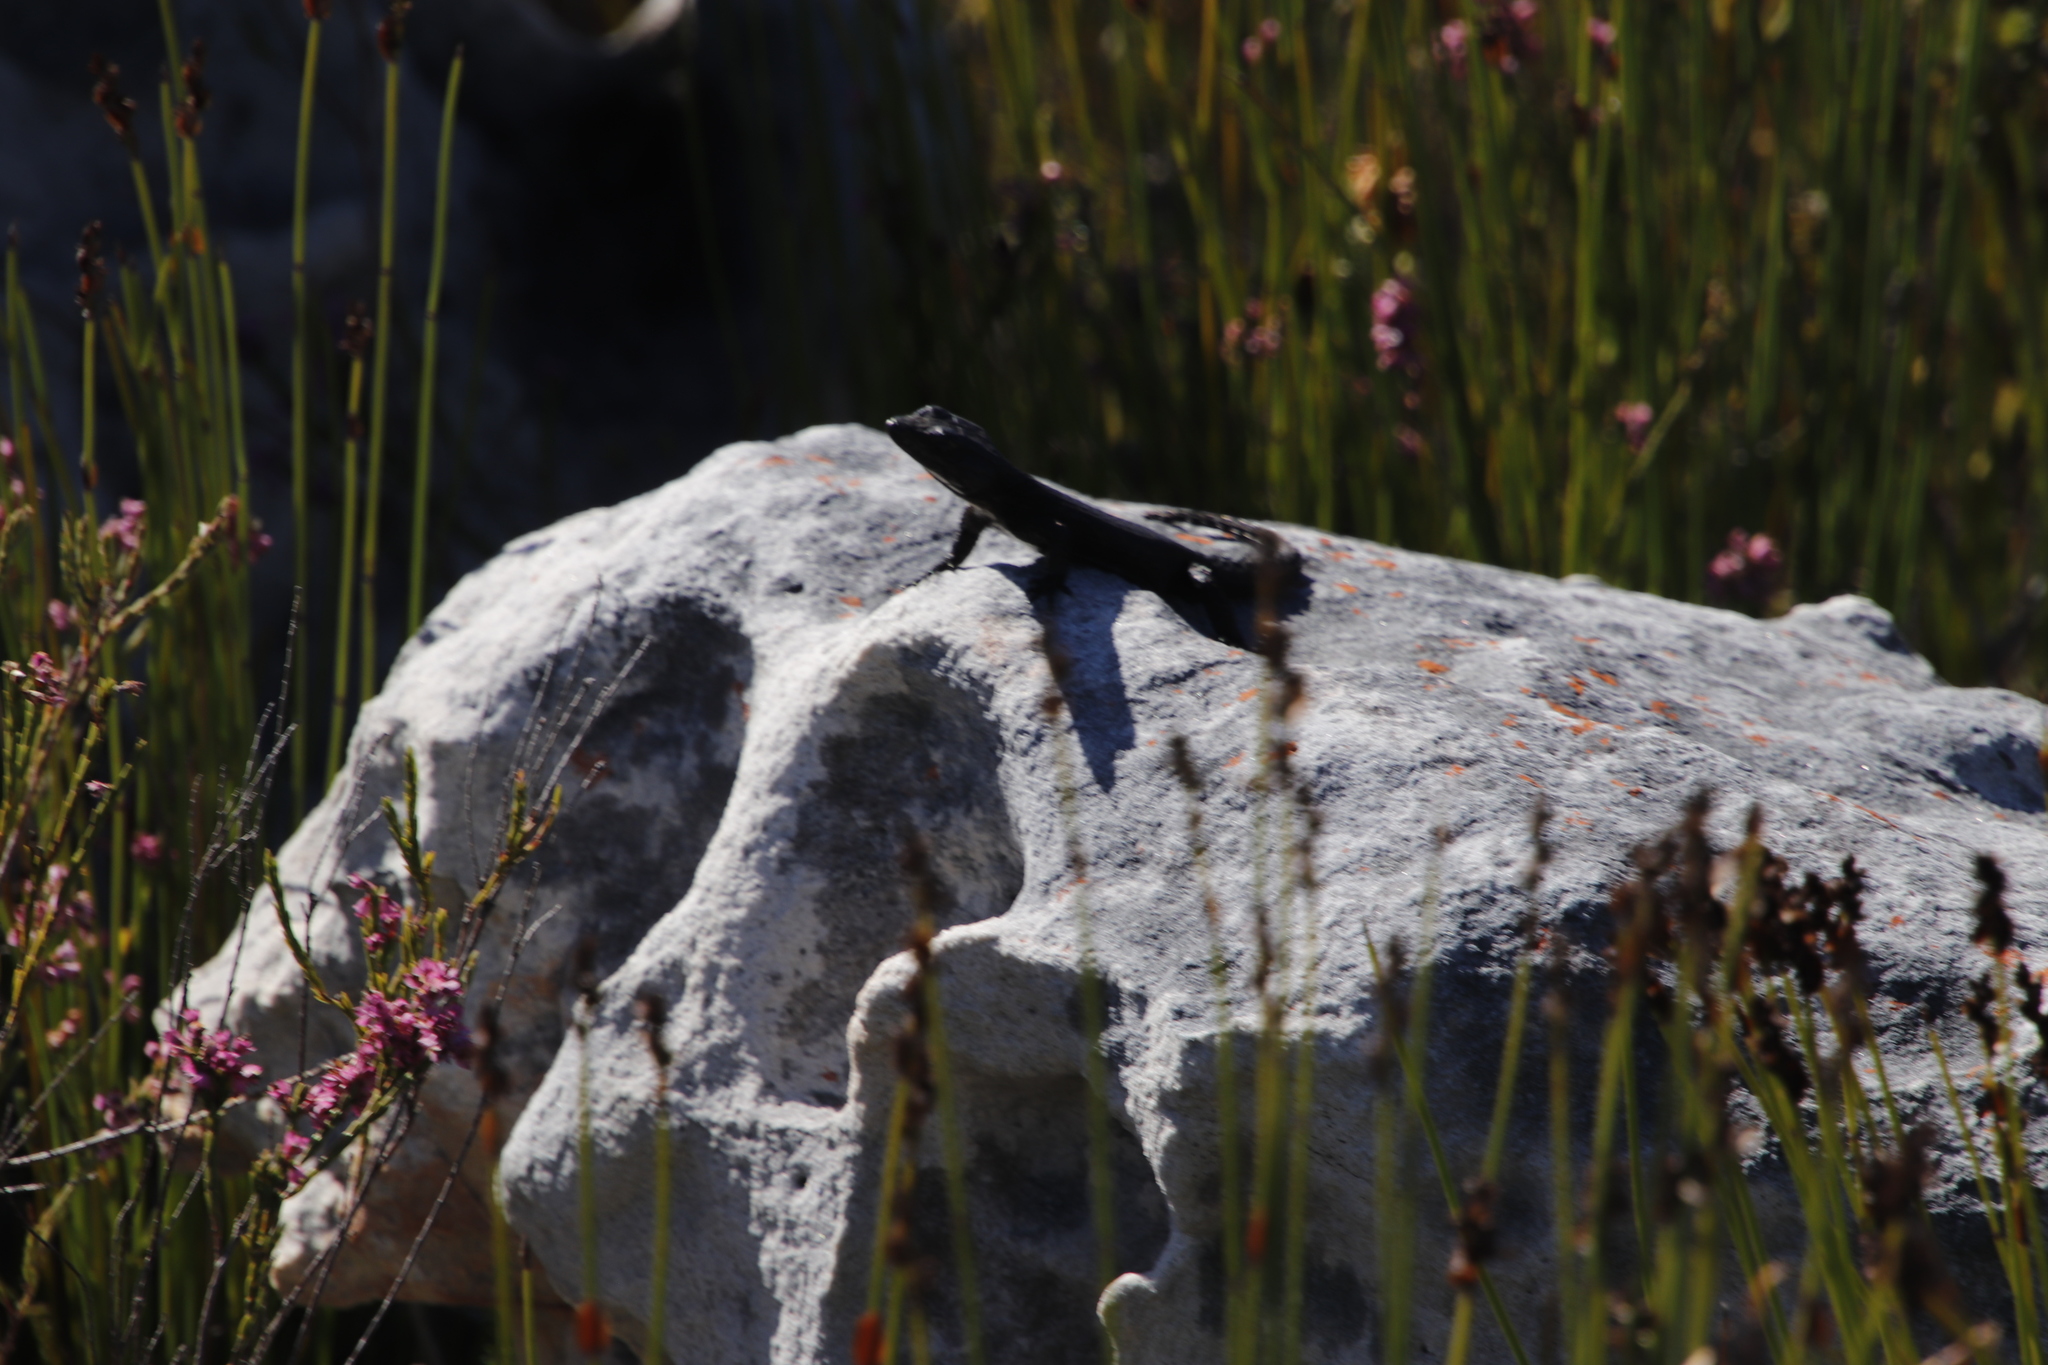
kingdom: Animalia
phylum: Chordata
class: Squamata
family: Cordylidae
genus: Cordylus
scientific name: Cordylus niger
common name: Black girdled lizard
